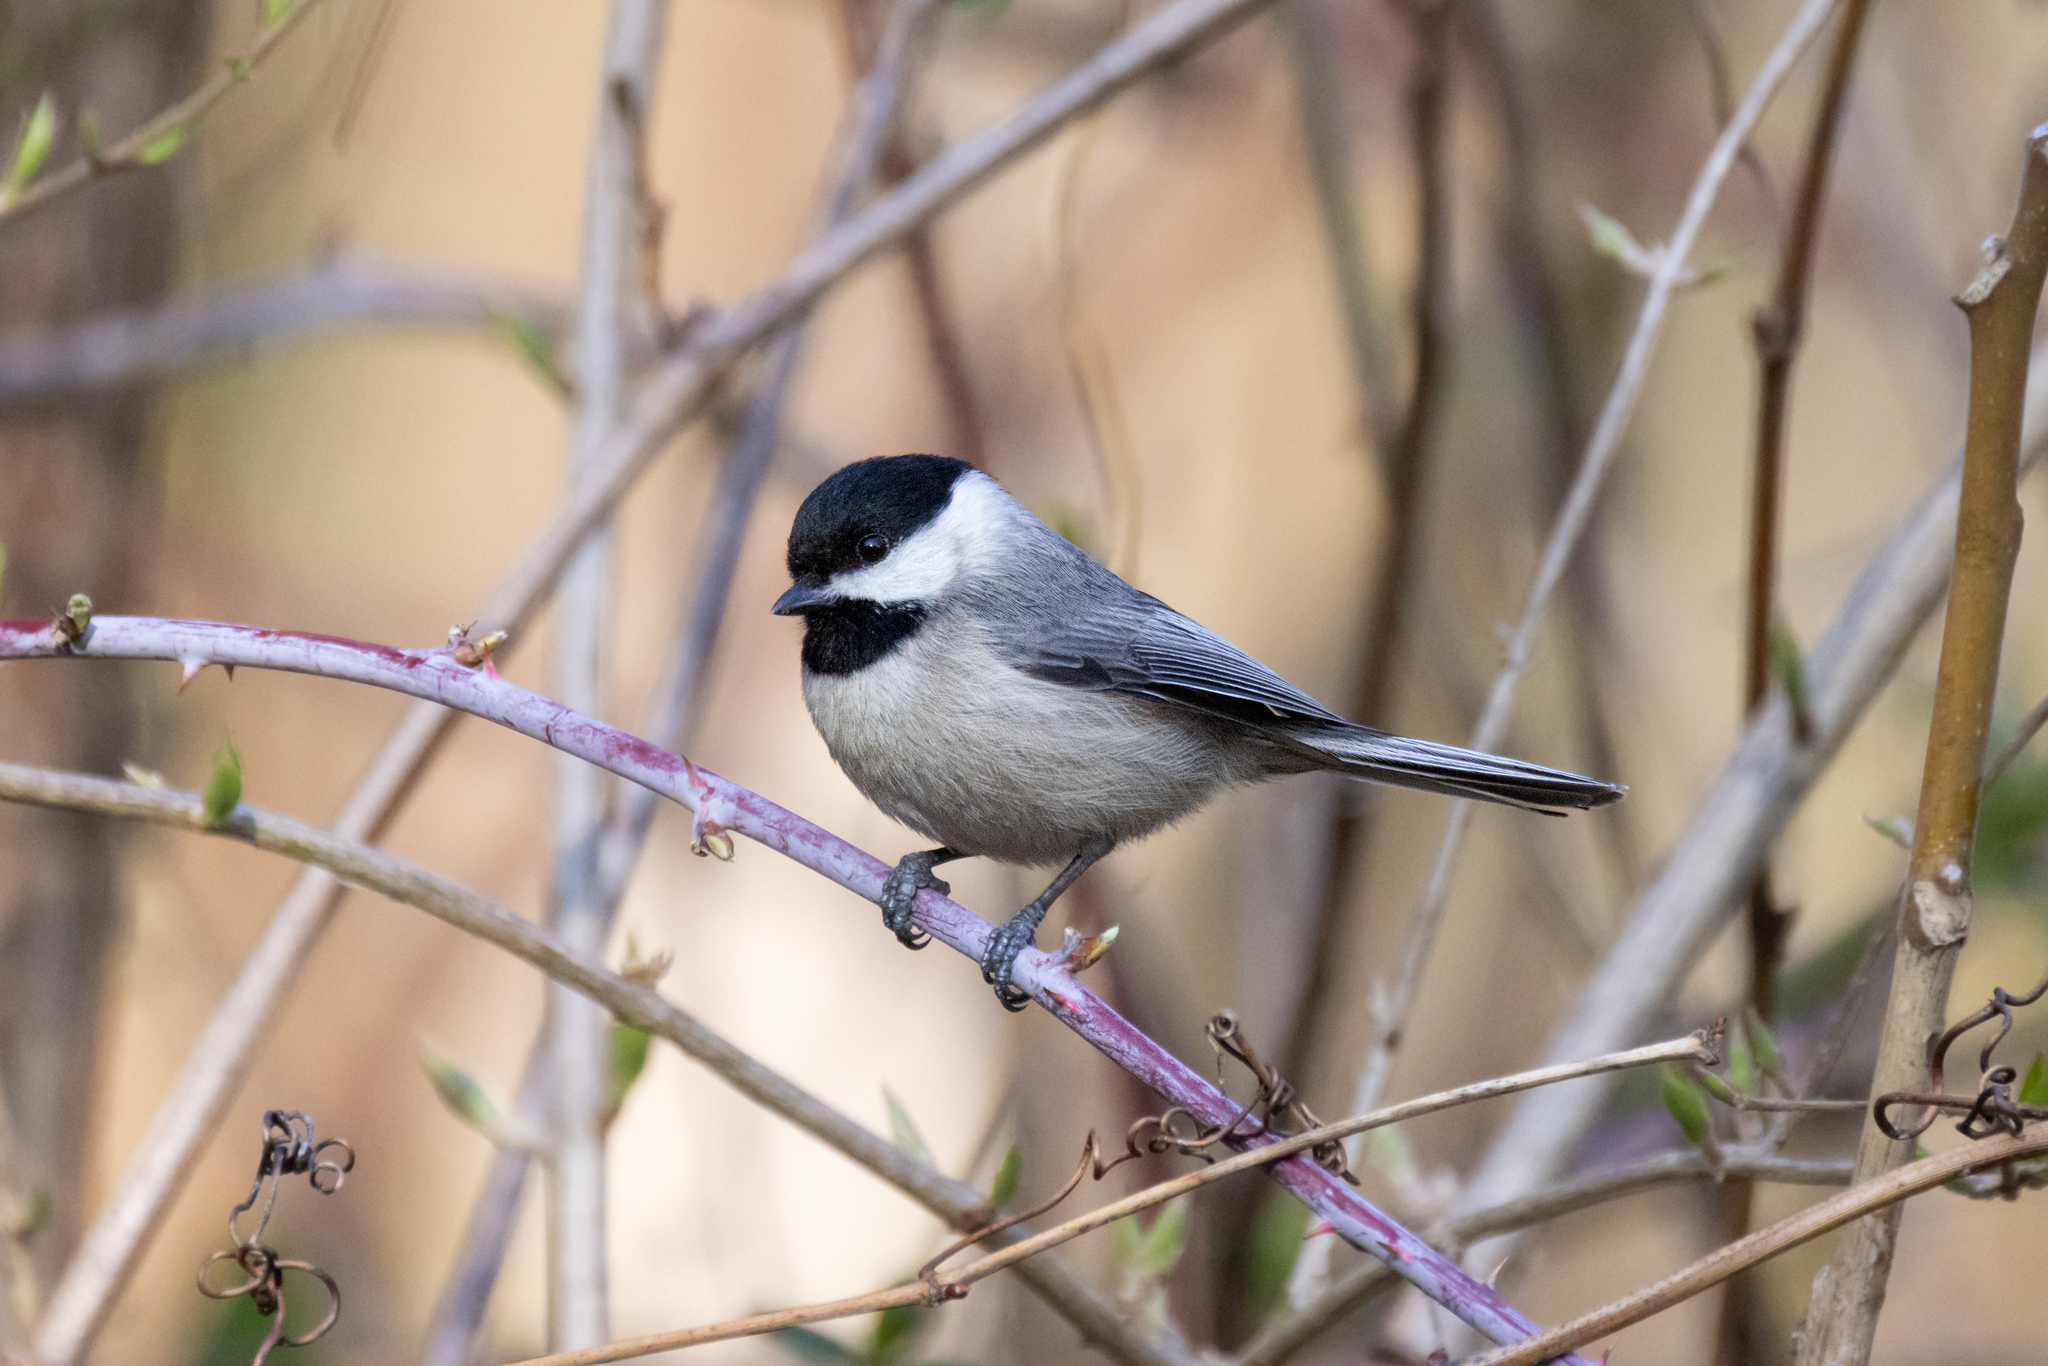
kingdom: Animalia
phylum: Chordata
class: Aves
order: Passeriformes
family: Paridae
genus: Poecile
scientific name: Poecile carolinensis
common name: Carolina chickadee
